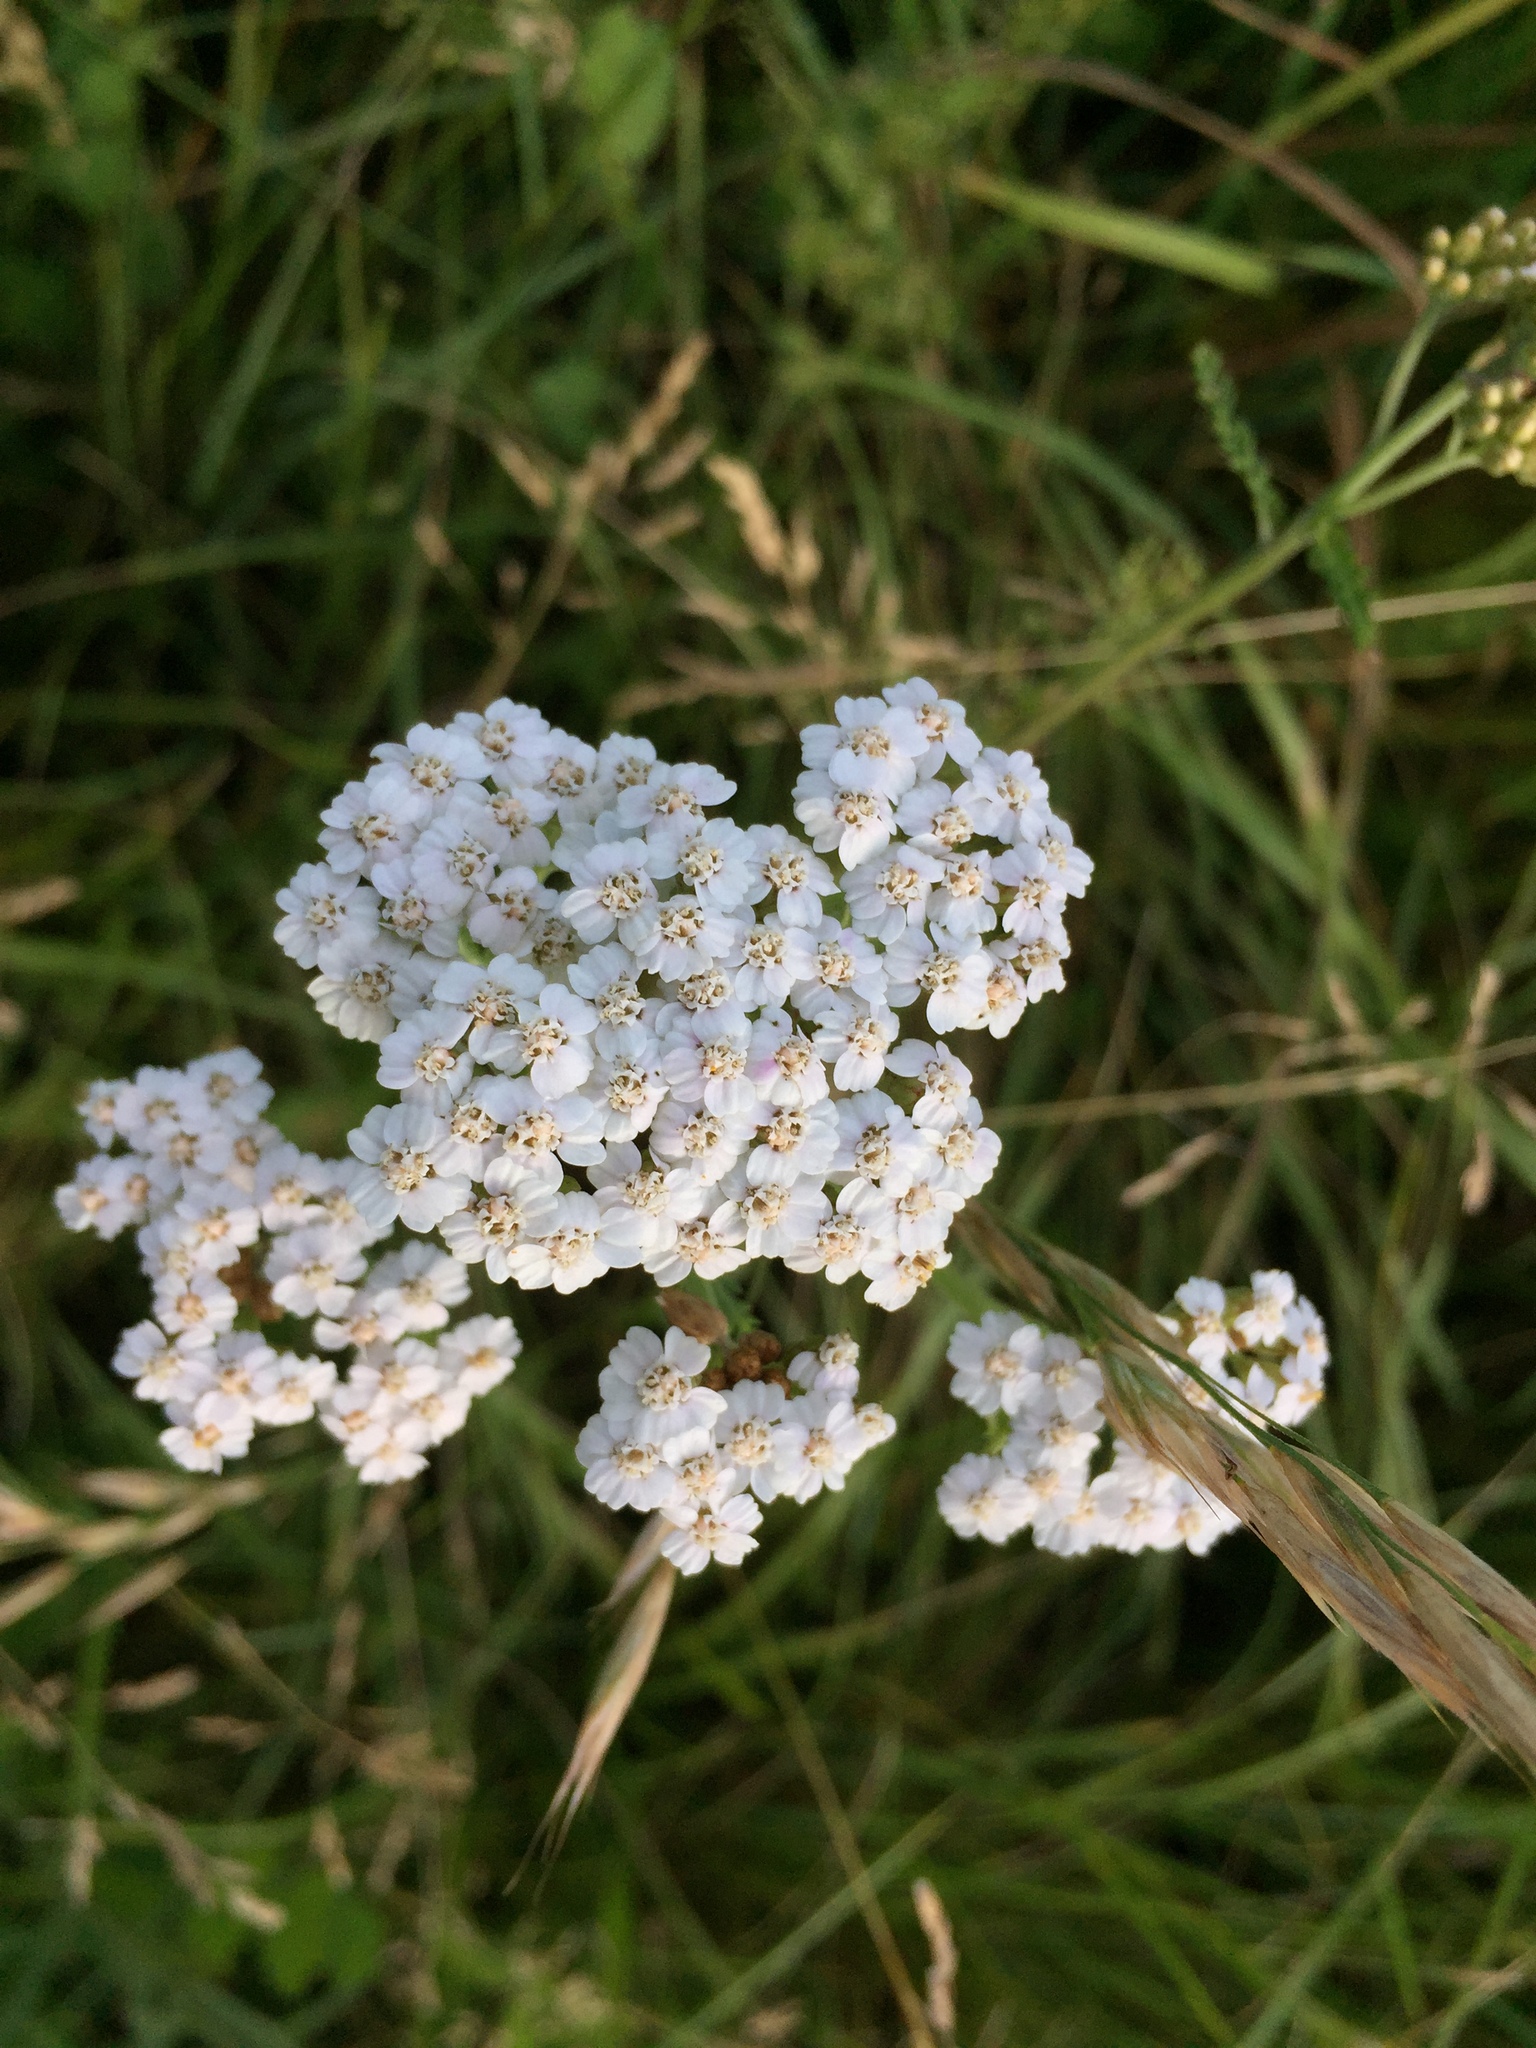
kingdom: Plantae
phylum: Tracheophyta
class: Magnoliopsida
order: Asterales
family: Asteraceae
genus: Achillea
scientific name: Achillea millefolium
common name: Yarrow
